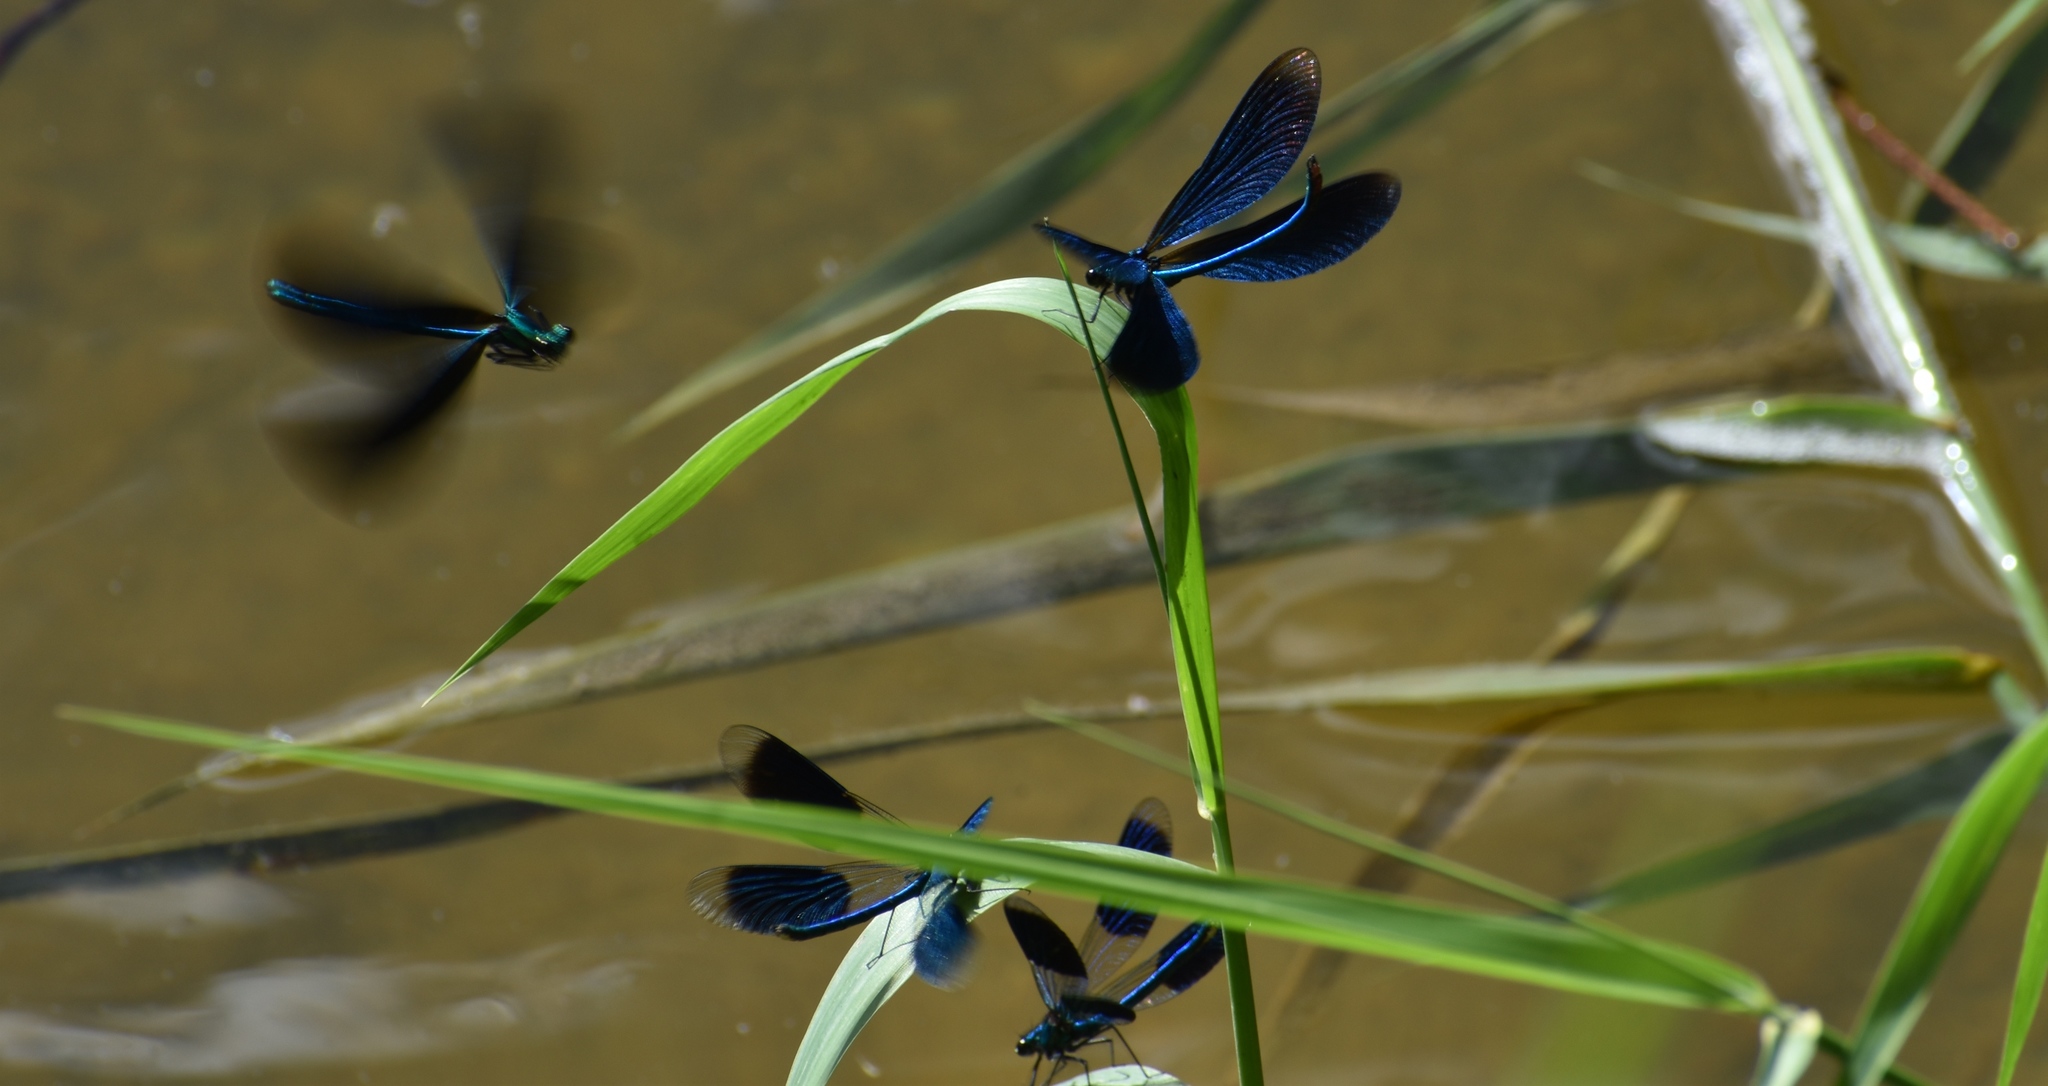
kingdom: Animalia
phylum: Arthropoda
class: Insecta
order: Odonata
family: Calopterygidae
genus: Calopteryx
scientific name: Calopteryx virgo
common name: Beautiful demoiselle
